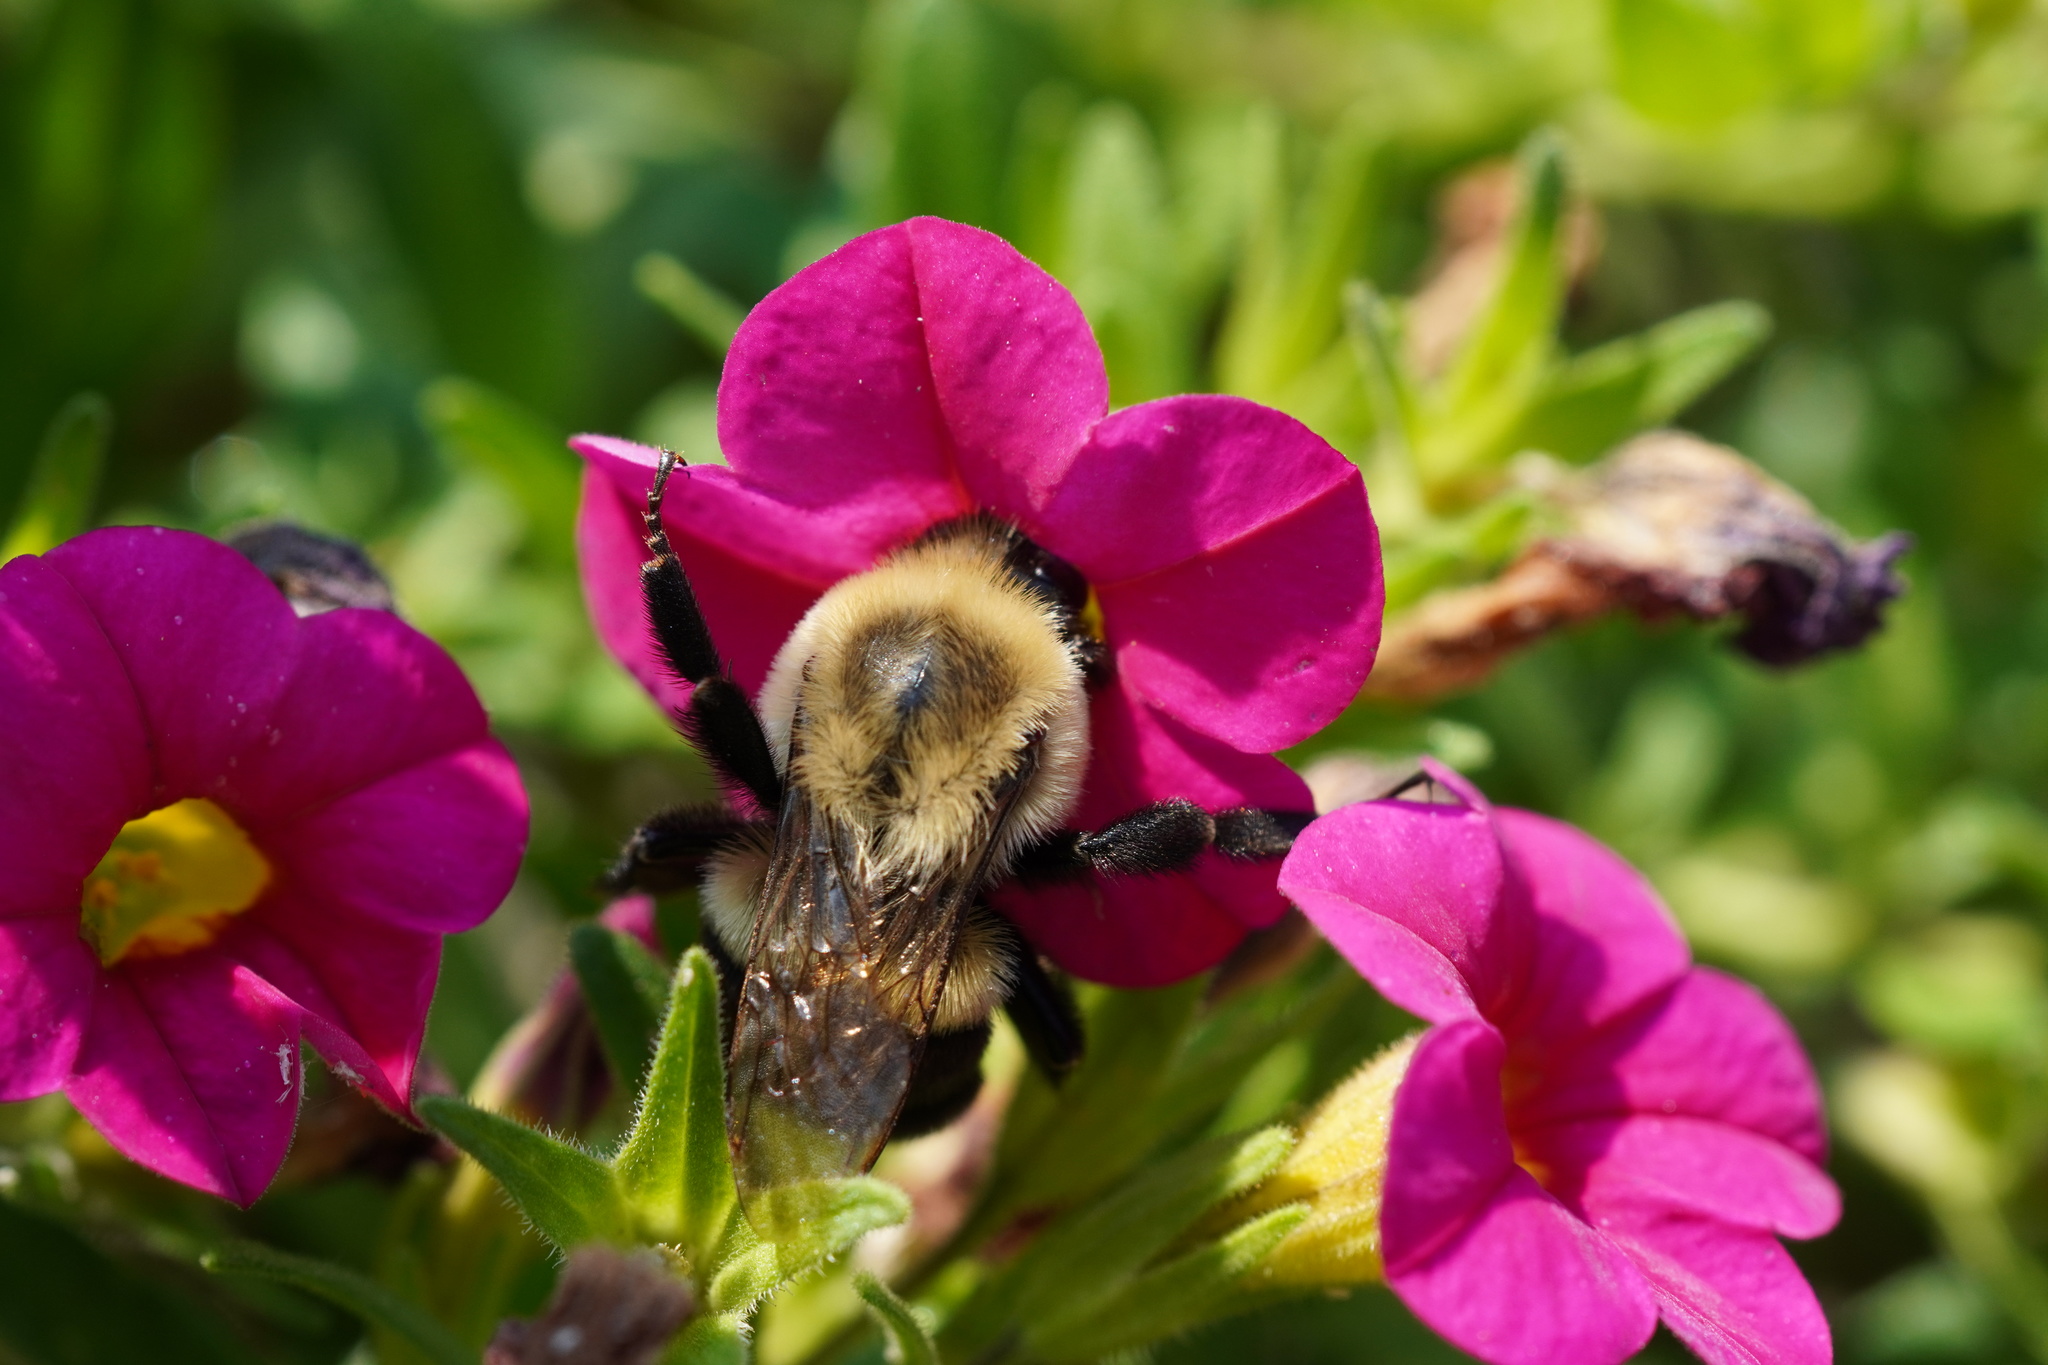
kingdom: Animalia
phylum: Arthropoda
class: Insecta
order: Hymenoptera
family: Apidae
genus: Bombus
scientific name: Bombus impatiens
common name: Common eastern bumble bee
